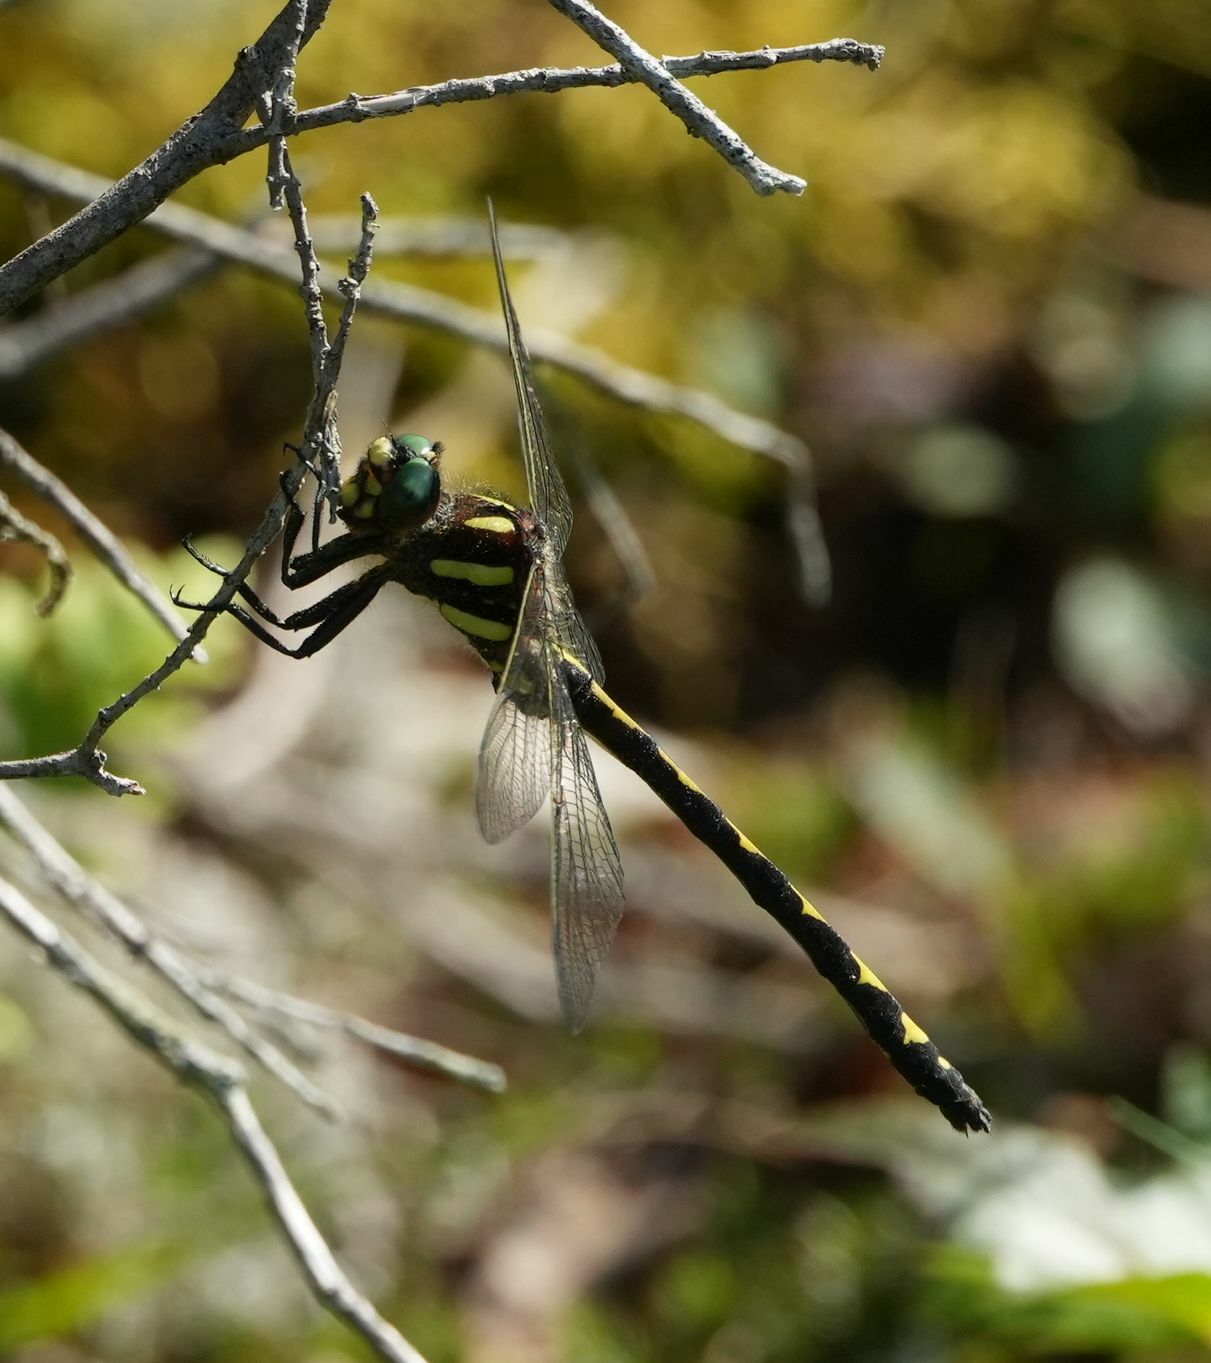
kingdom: Animalia
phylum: Arthropoda
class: Insecta
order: Odonata
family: Cordulegastridae
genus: Cordulegaster
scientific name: Cordulegaster obliqua
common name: Arrowhead spiketail
